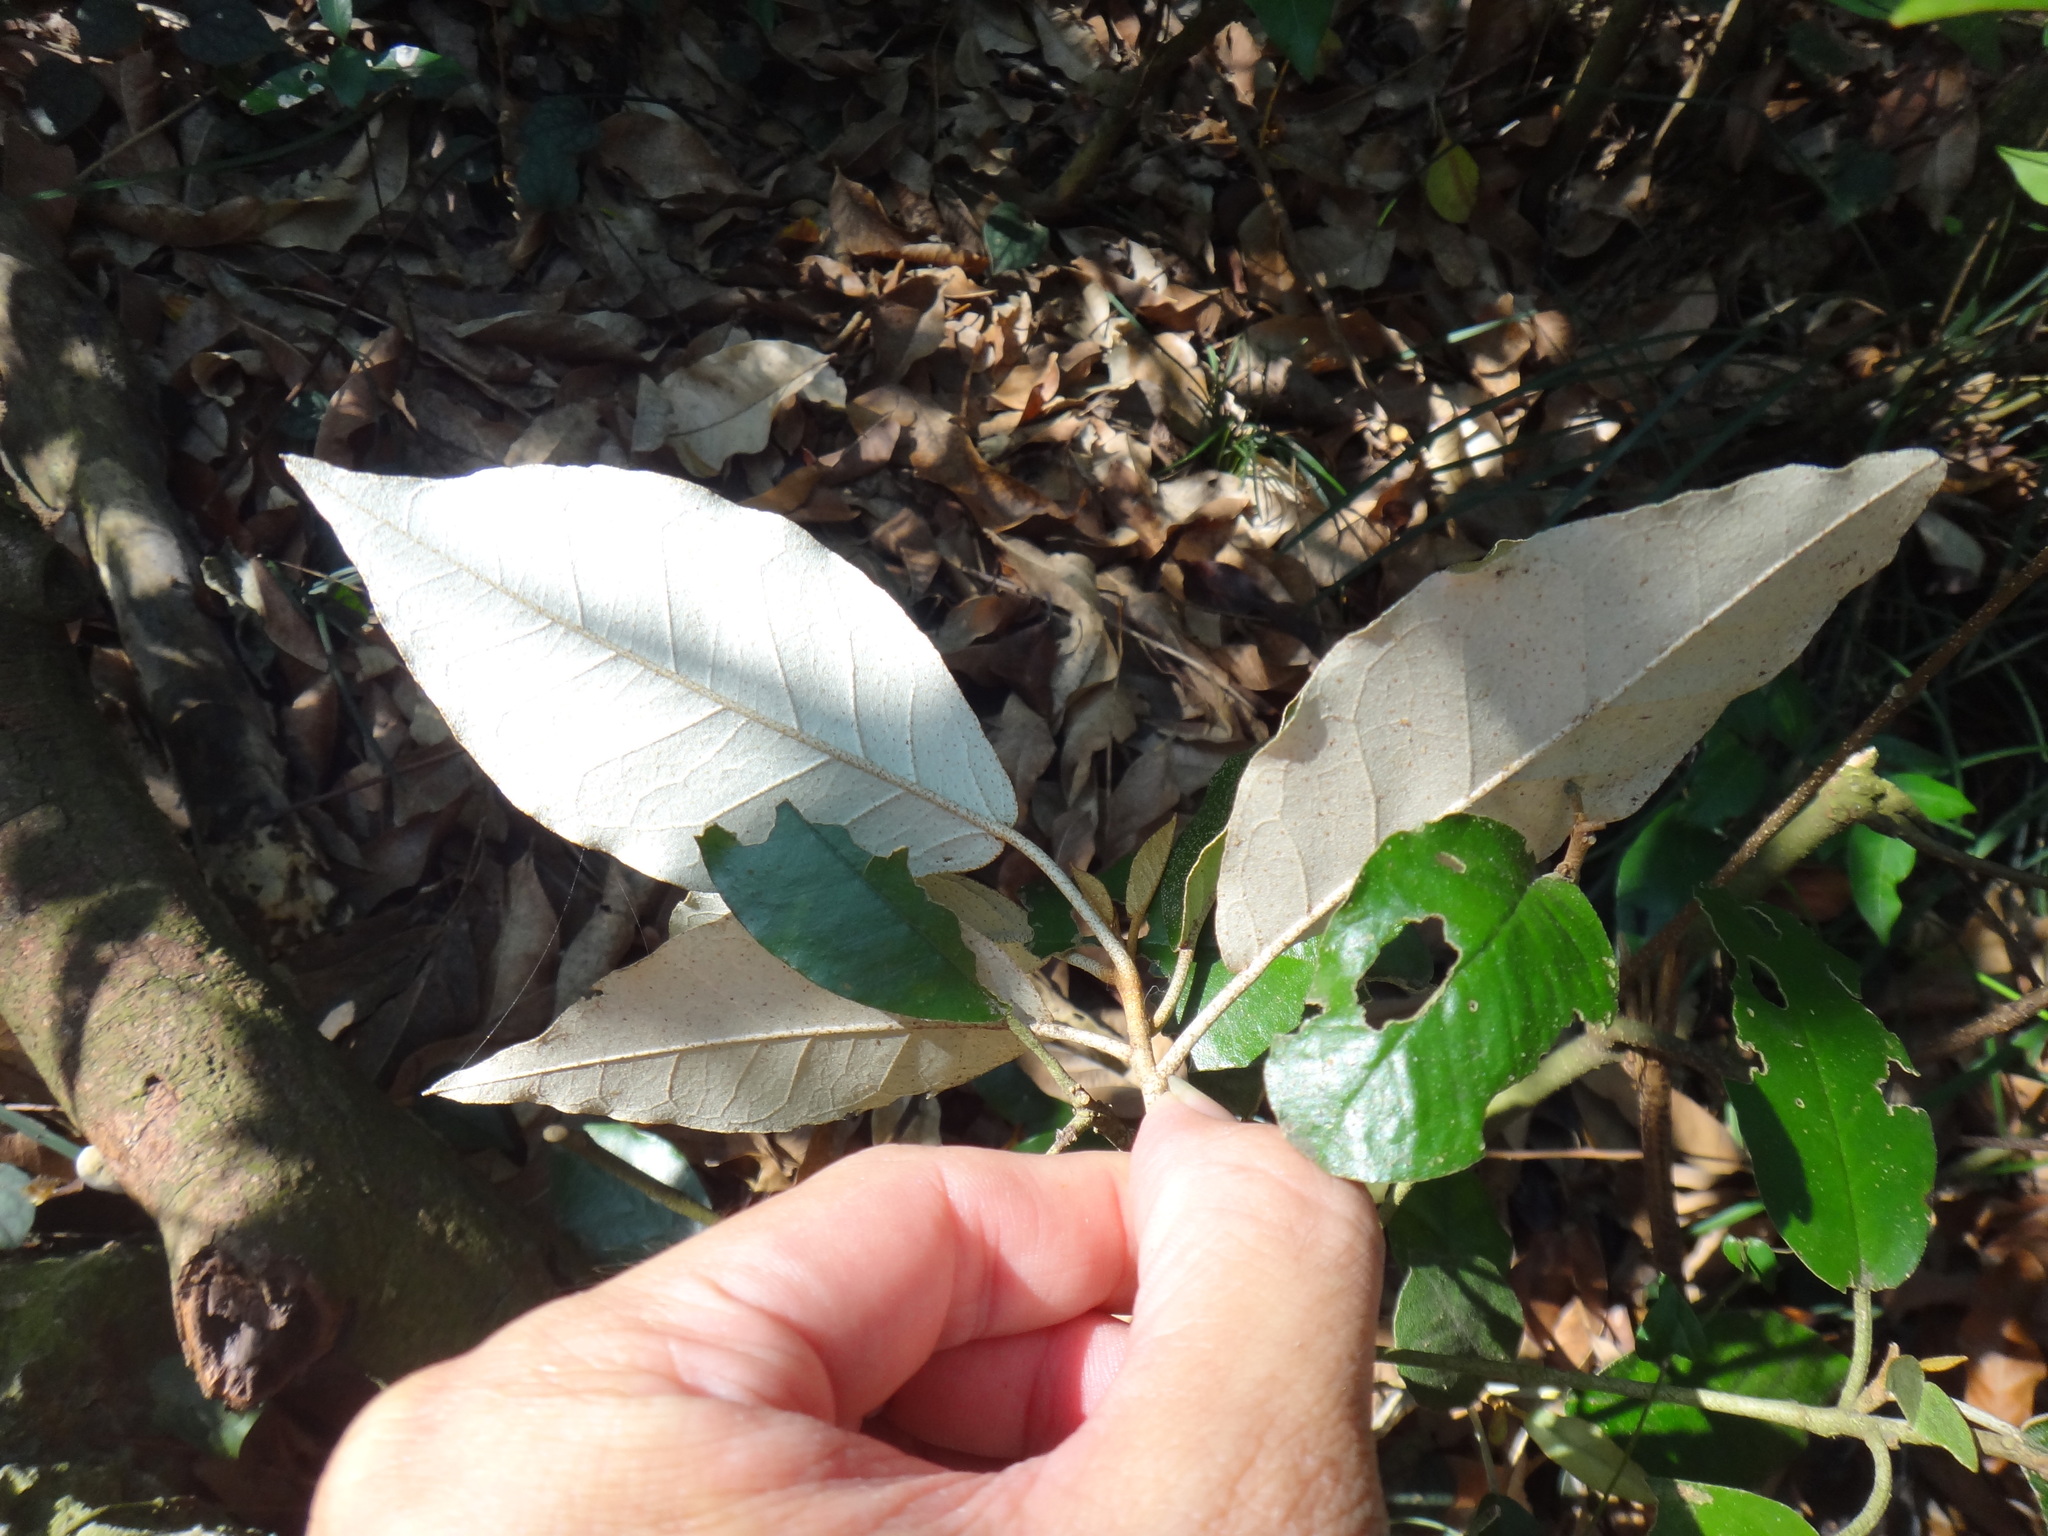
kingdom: Plantae
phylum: Tracheophyta
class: Magnoliopsida
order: Malpighiales
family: Euphorbiaceae
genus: Croton
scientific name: Croton cascarilloides
